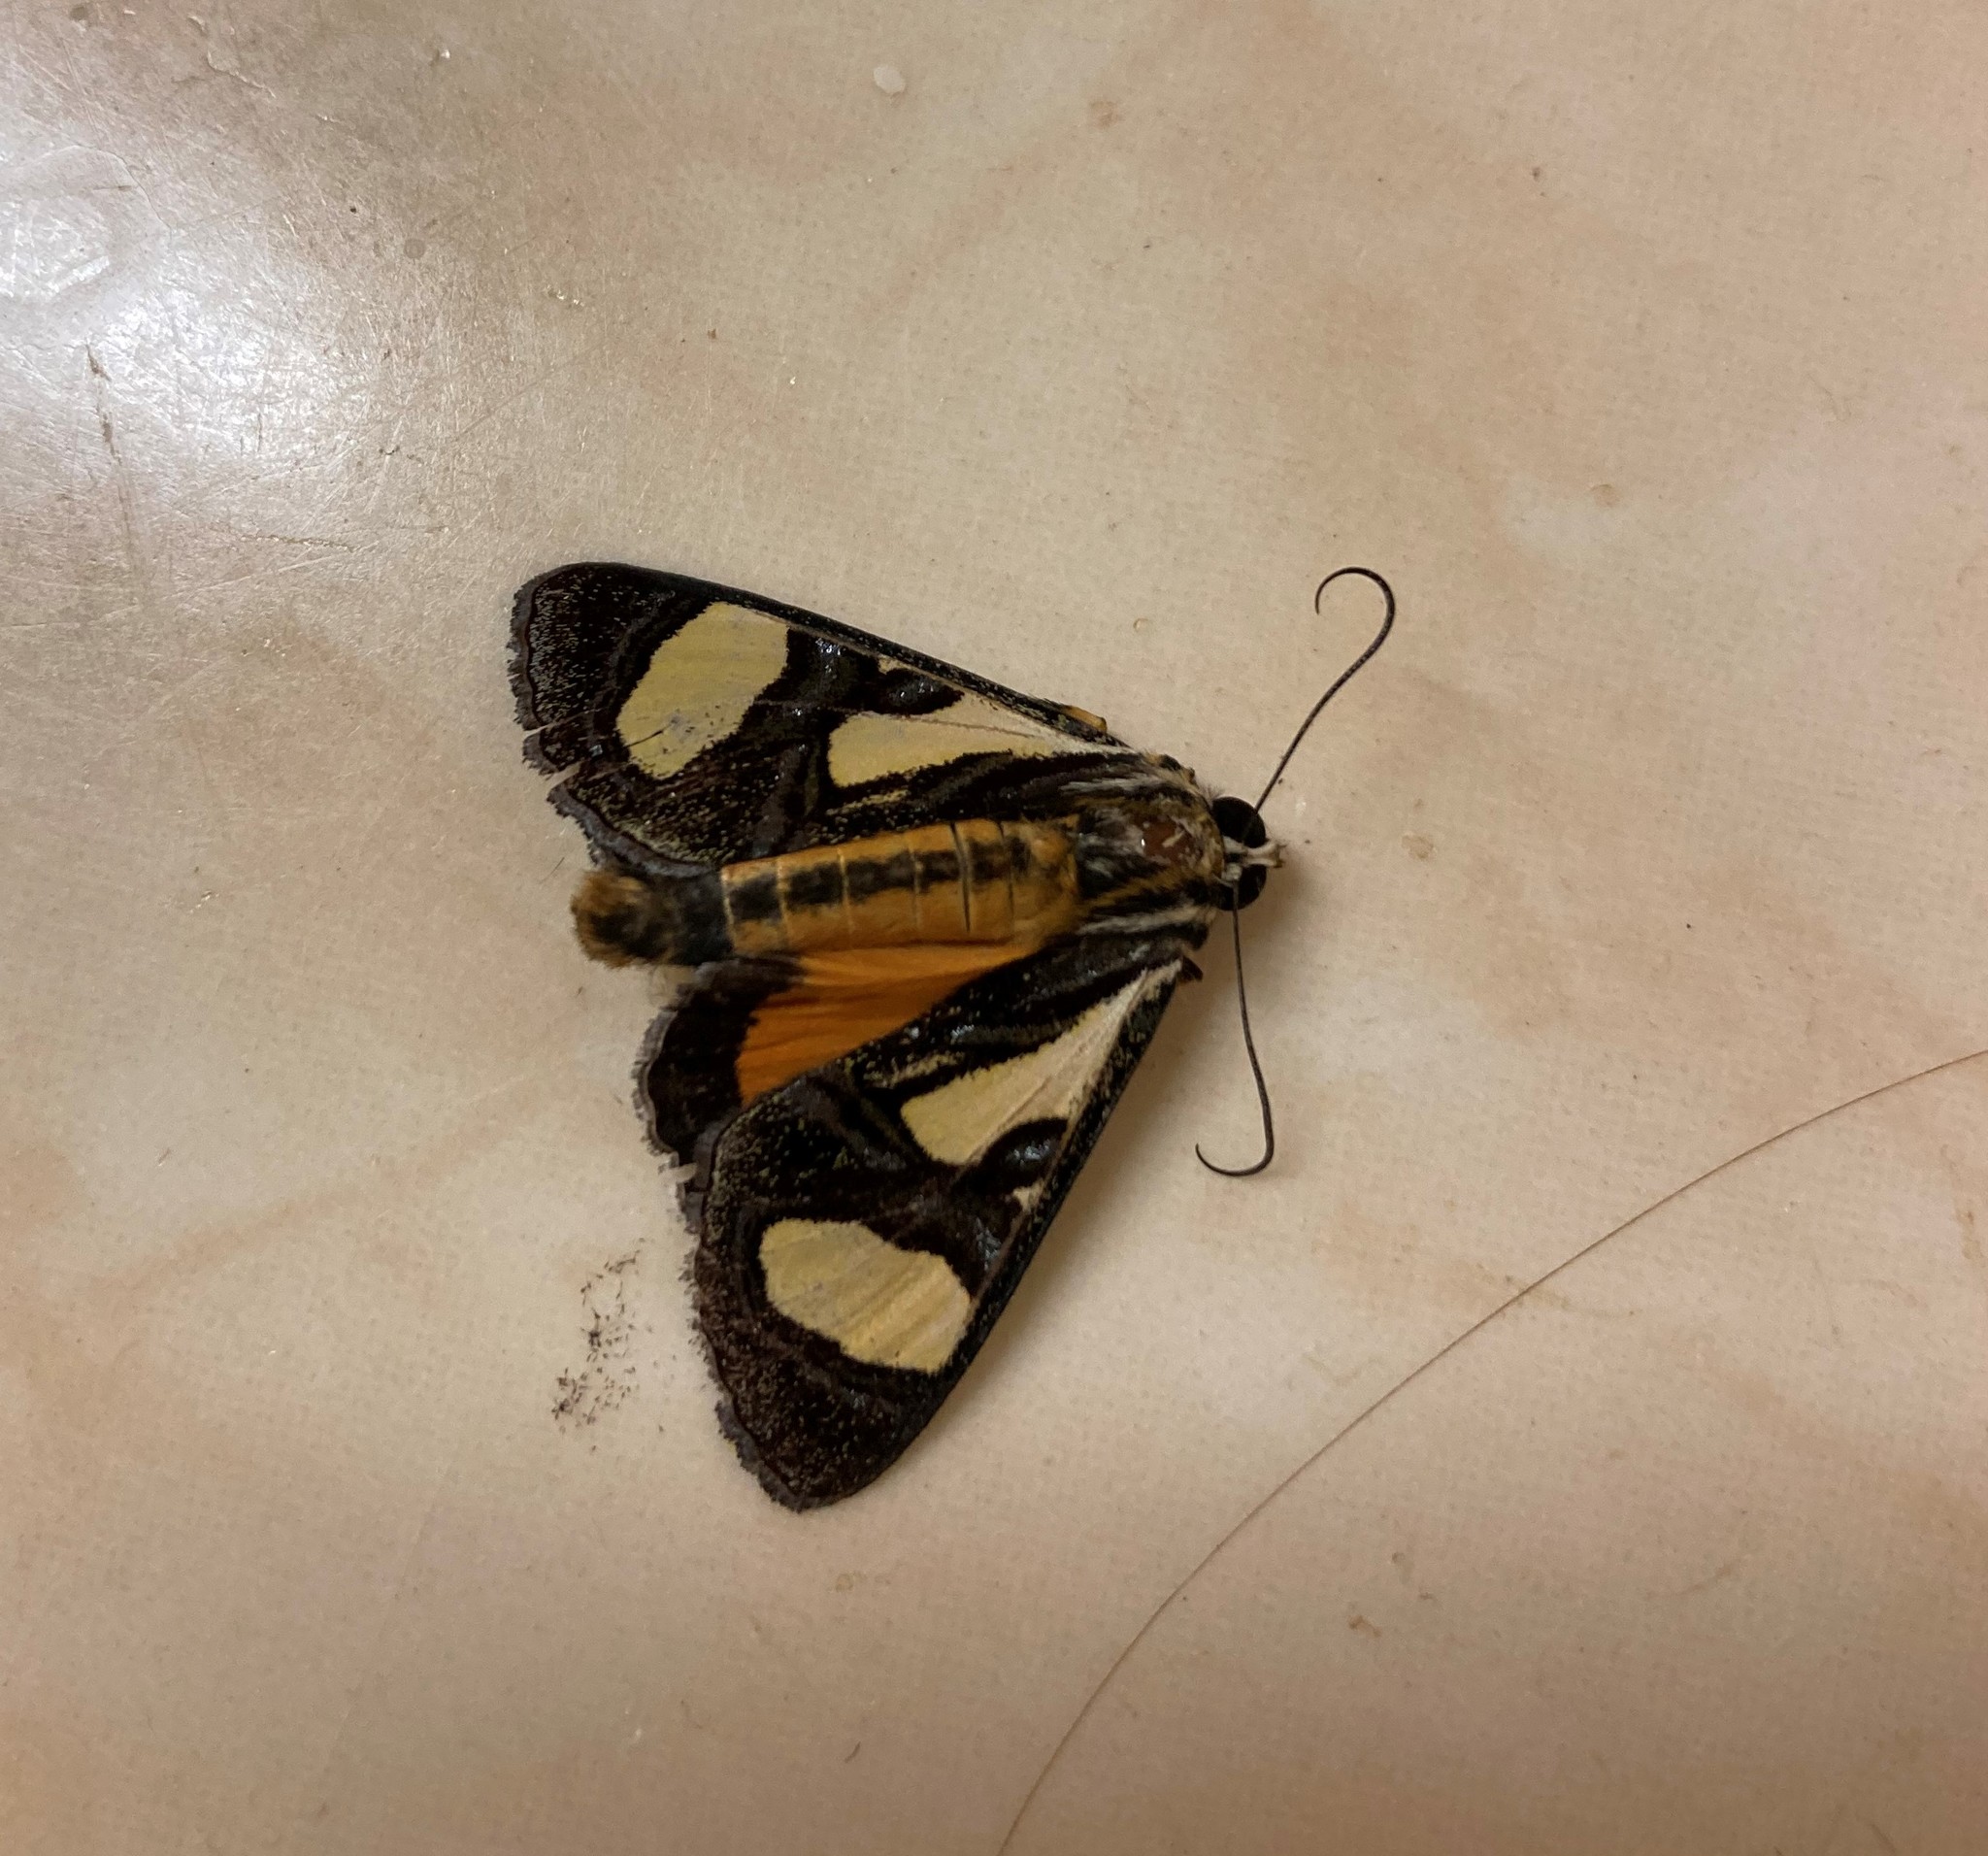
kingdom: Animalia
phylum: Arthropoda
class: Insecta
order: Lepidoptera
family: Noctuidae
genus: Agoma
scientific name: Agoma trimenii
